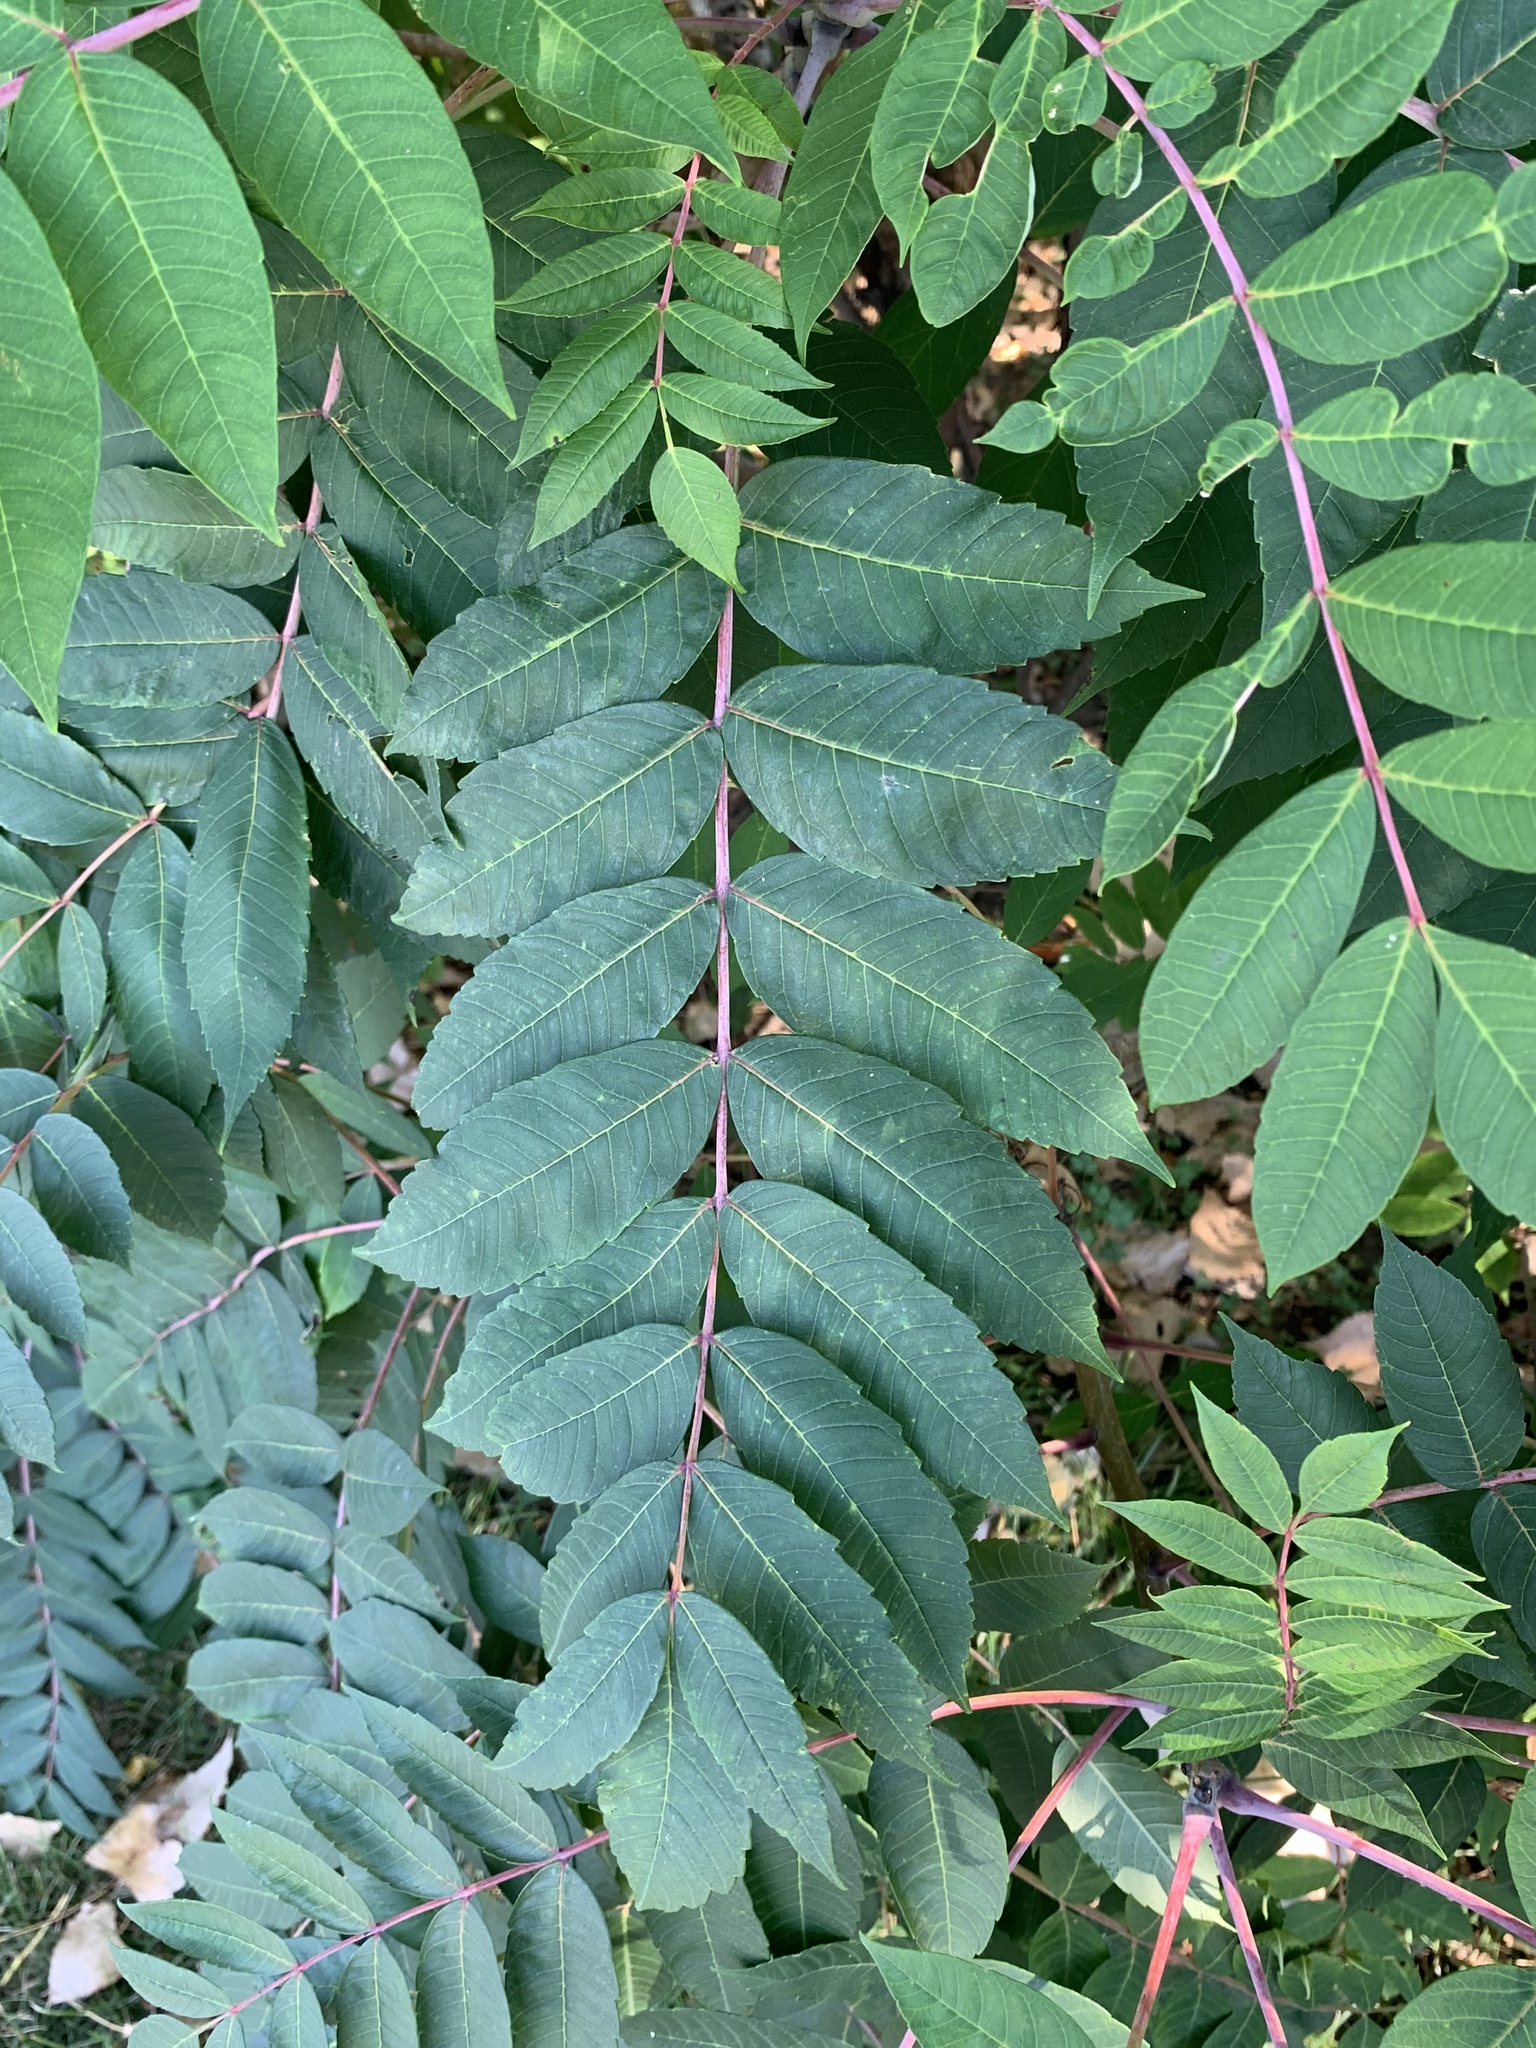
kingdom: Plantae
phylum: Tracheophyta
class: Magnoliopsida
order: Sapindales
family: Anacardiaceae
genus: Rhus
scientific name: Rhus glabra
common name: Scarlet sumac
